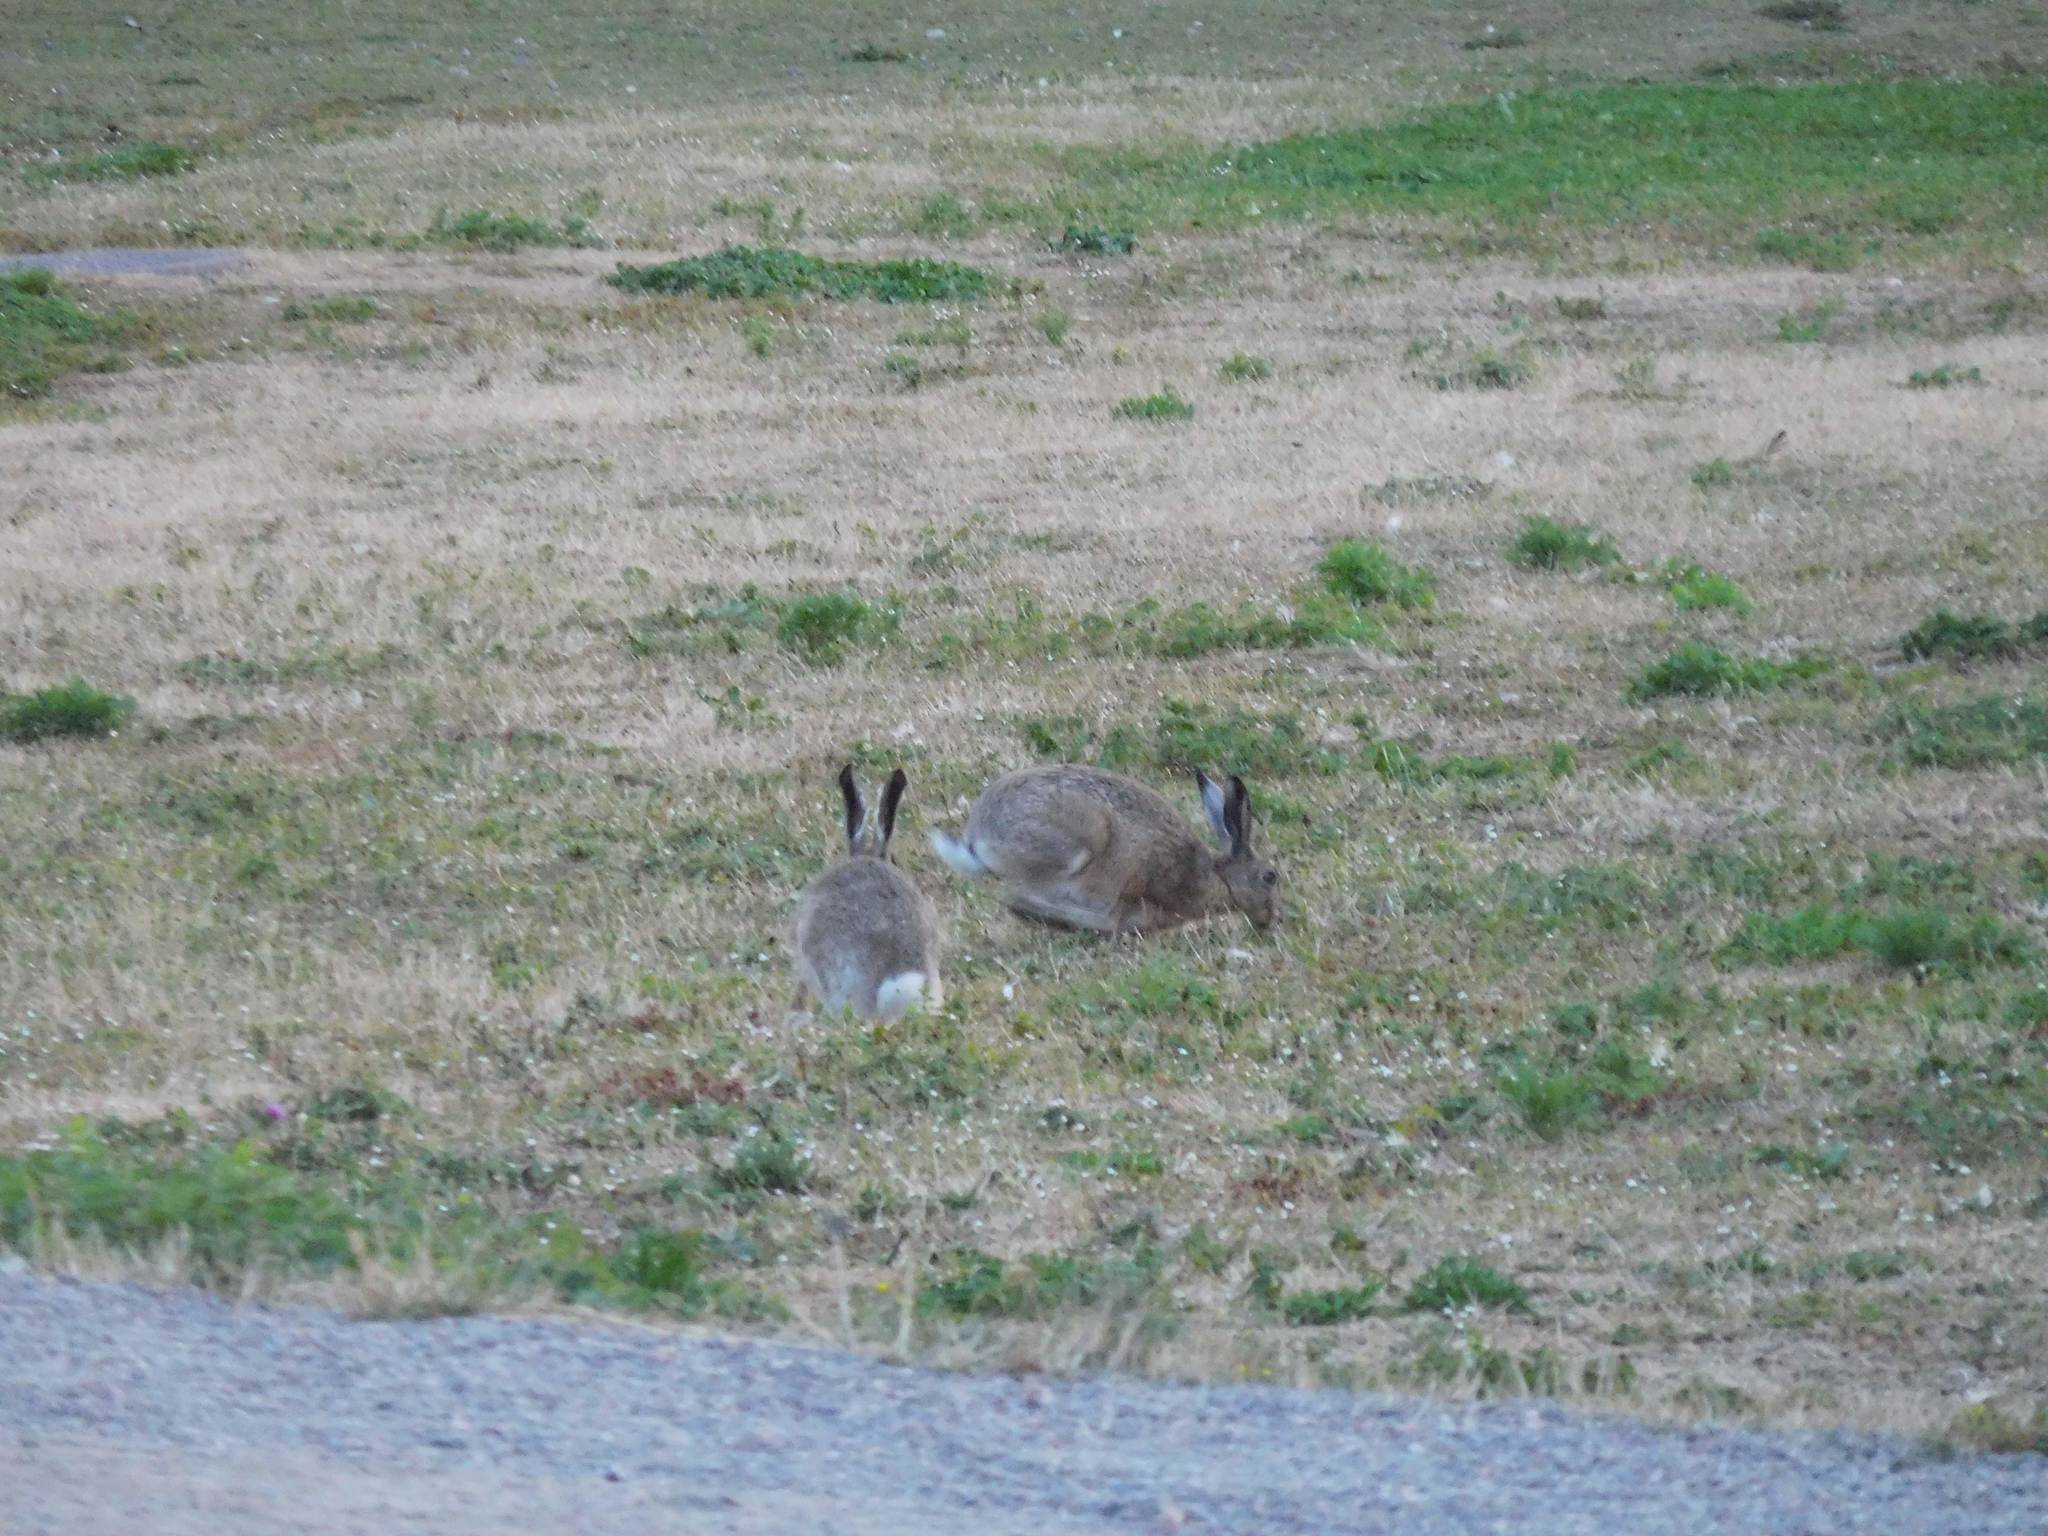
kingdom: Animalia
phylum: Chordata
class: Mammalia
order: Lagomorpha
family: Leporidae
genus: Lepus
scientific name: Lepus europaeus
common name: European hare
